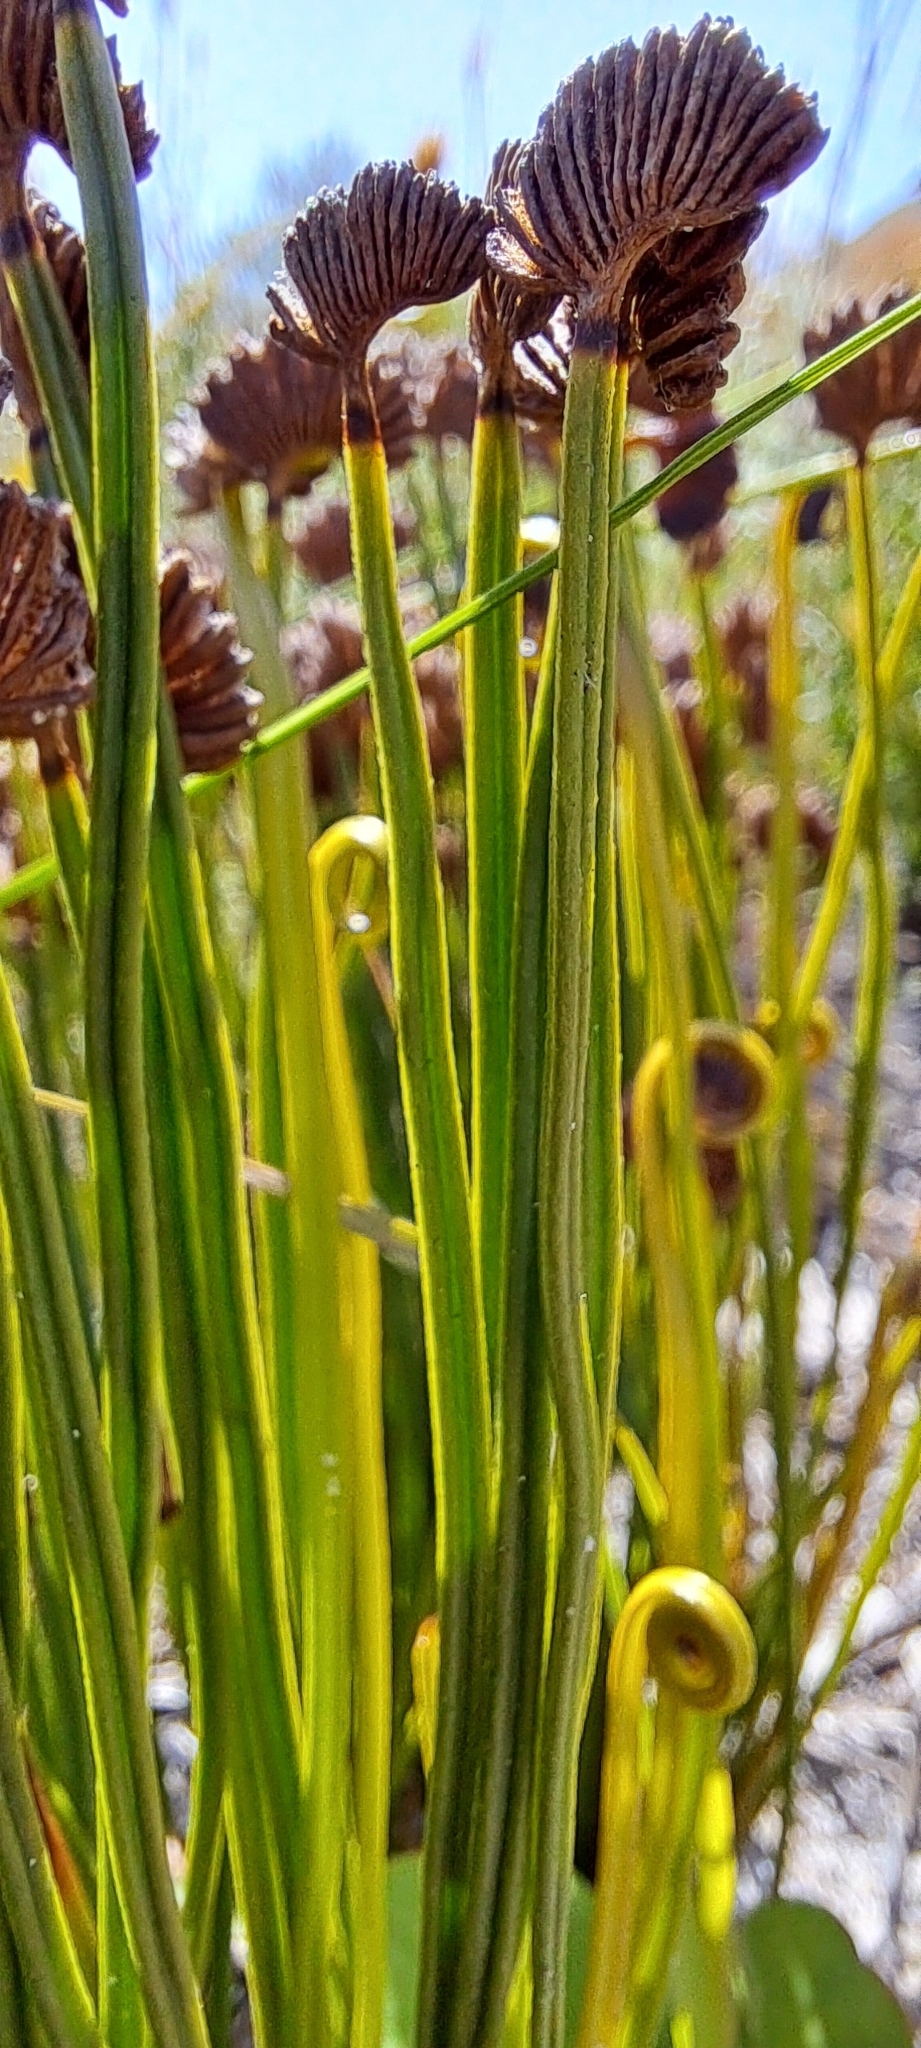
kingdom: Plantae
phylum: Tracheophyta
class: Polypodiopsida
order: Schizaeales
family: Schizaeaceae
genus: Schizaea
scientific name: Schizaea pectinata
